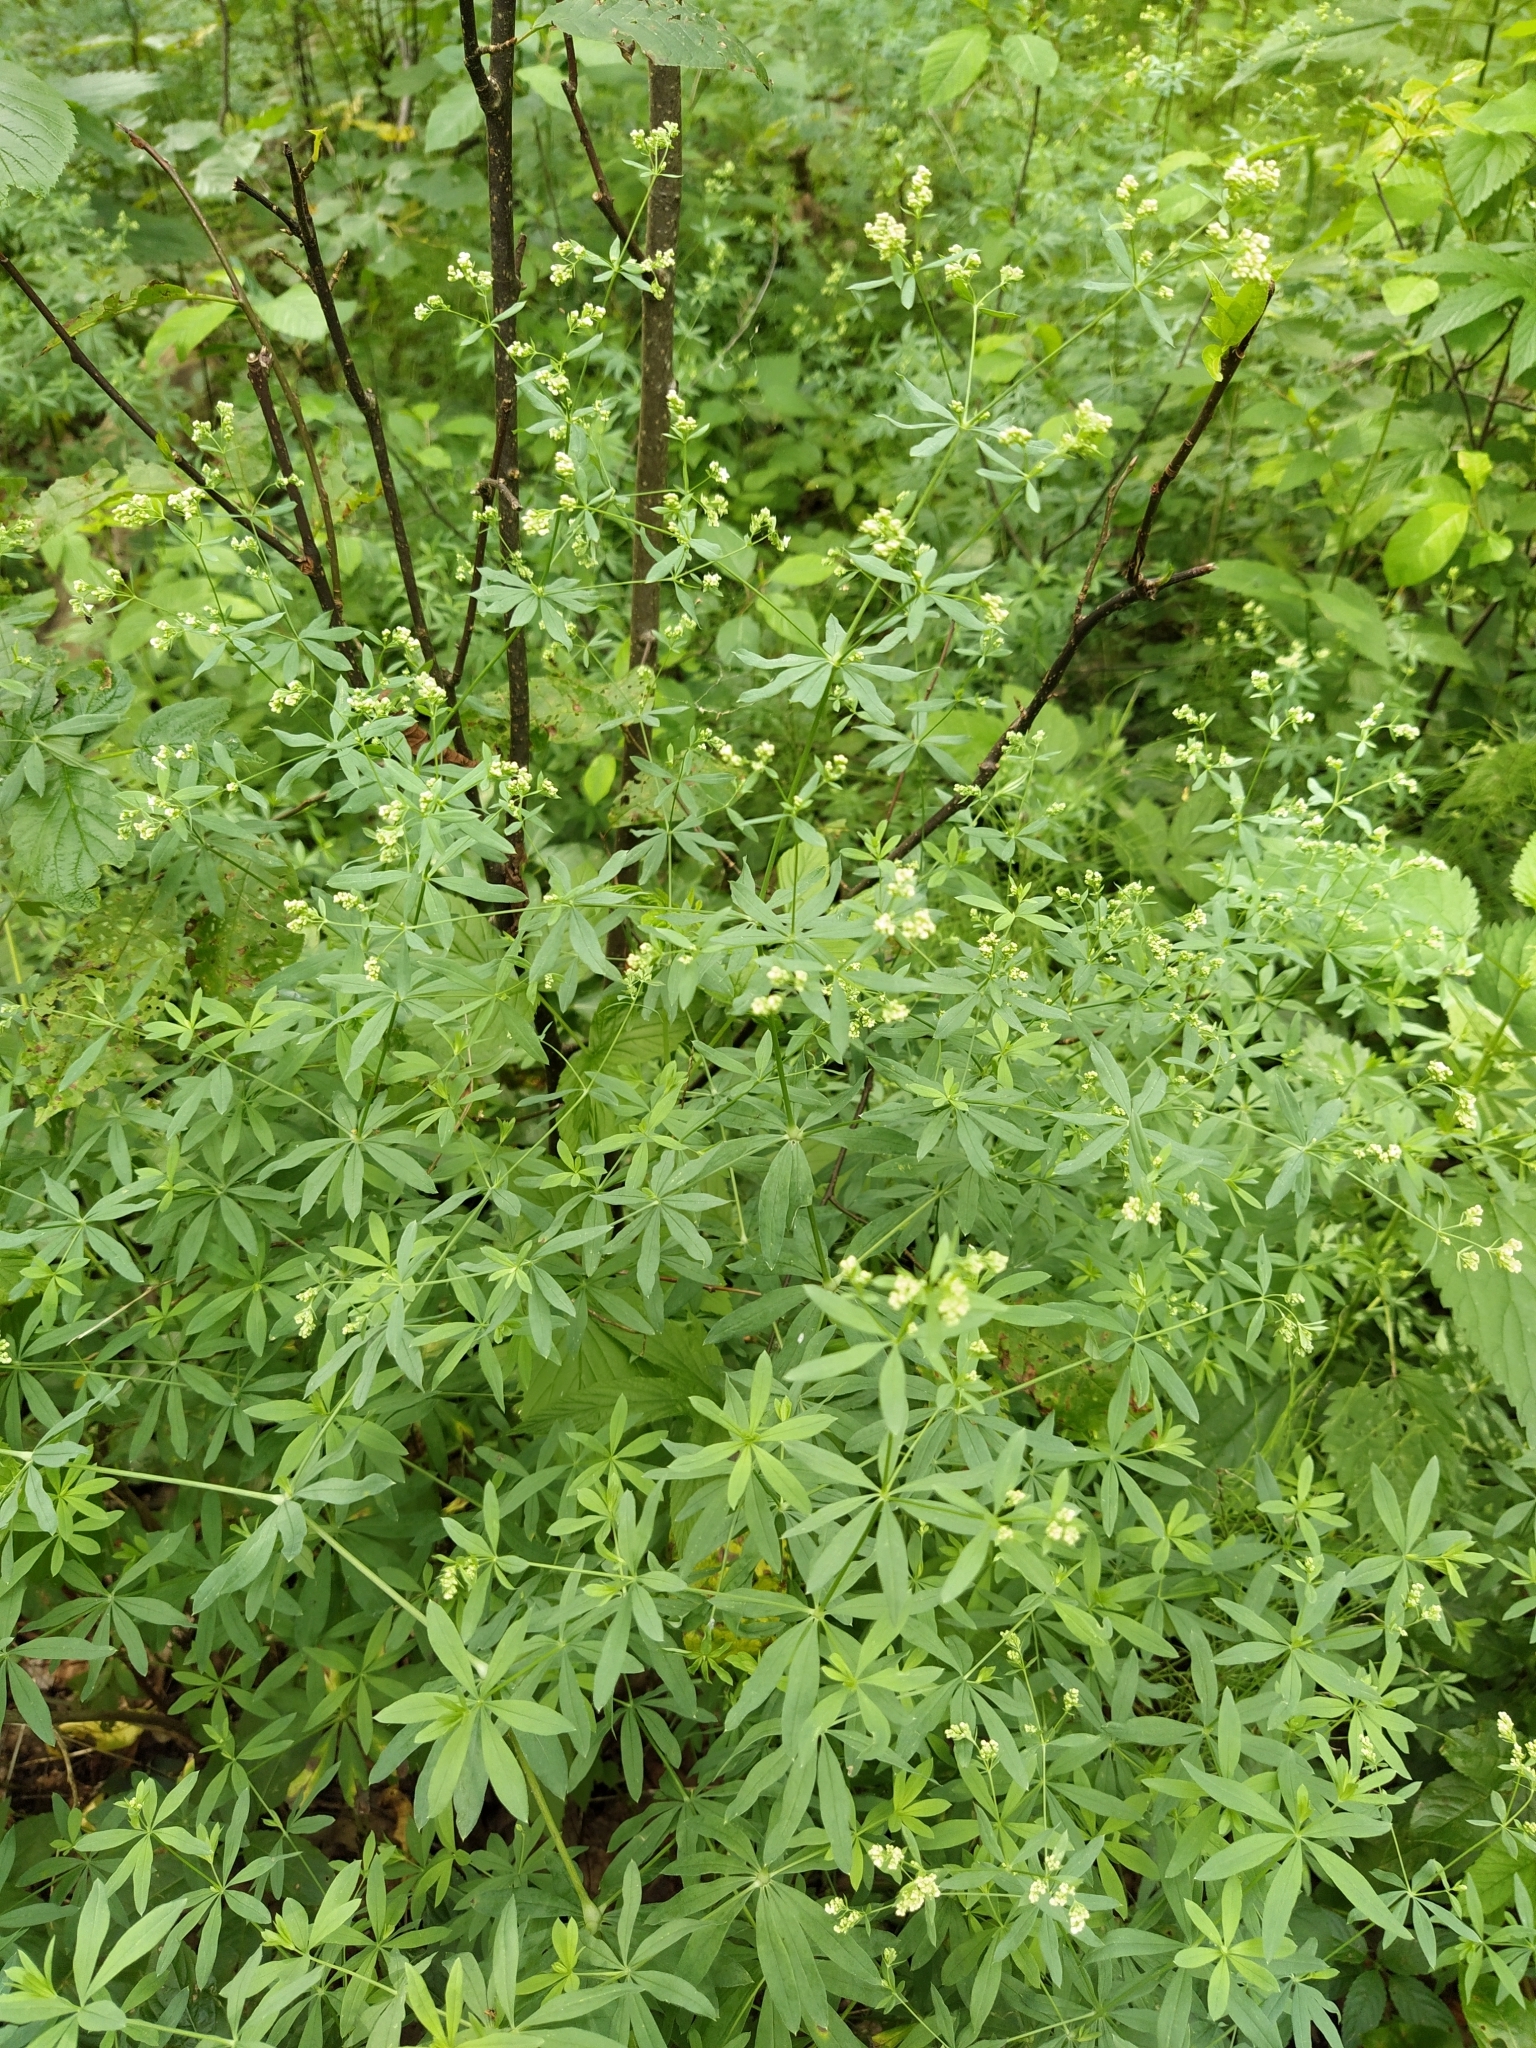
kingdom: Plantae
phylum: Tracheophyta
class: Magnoliopsida
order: Gentianales
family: Rubiaceae
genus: Galium
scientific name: Galium intermedium
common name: Bedstraw
